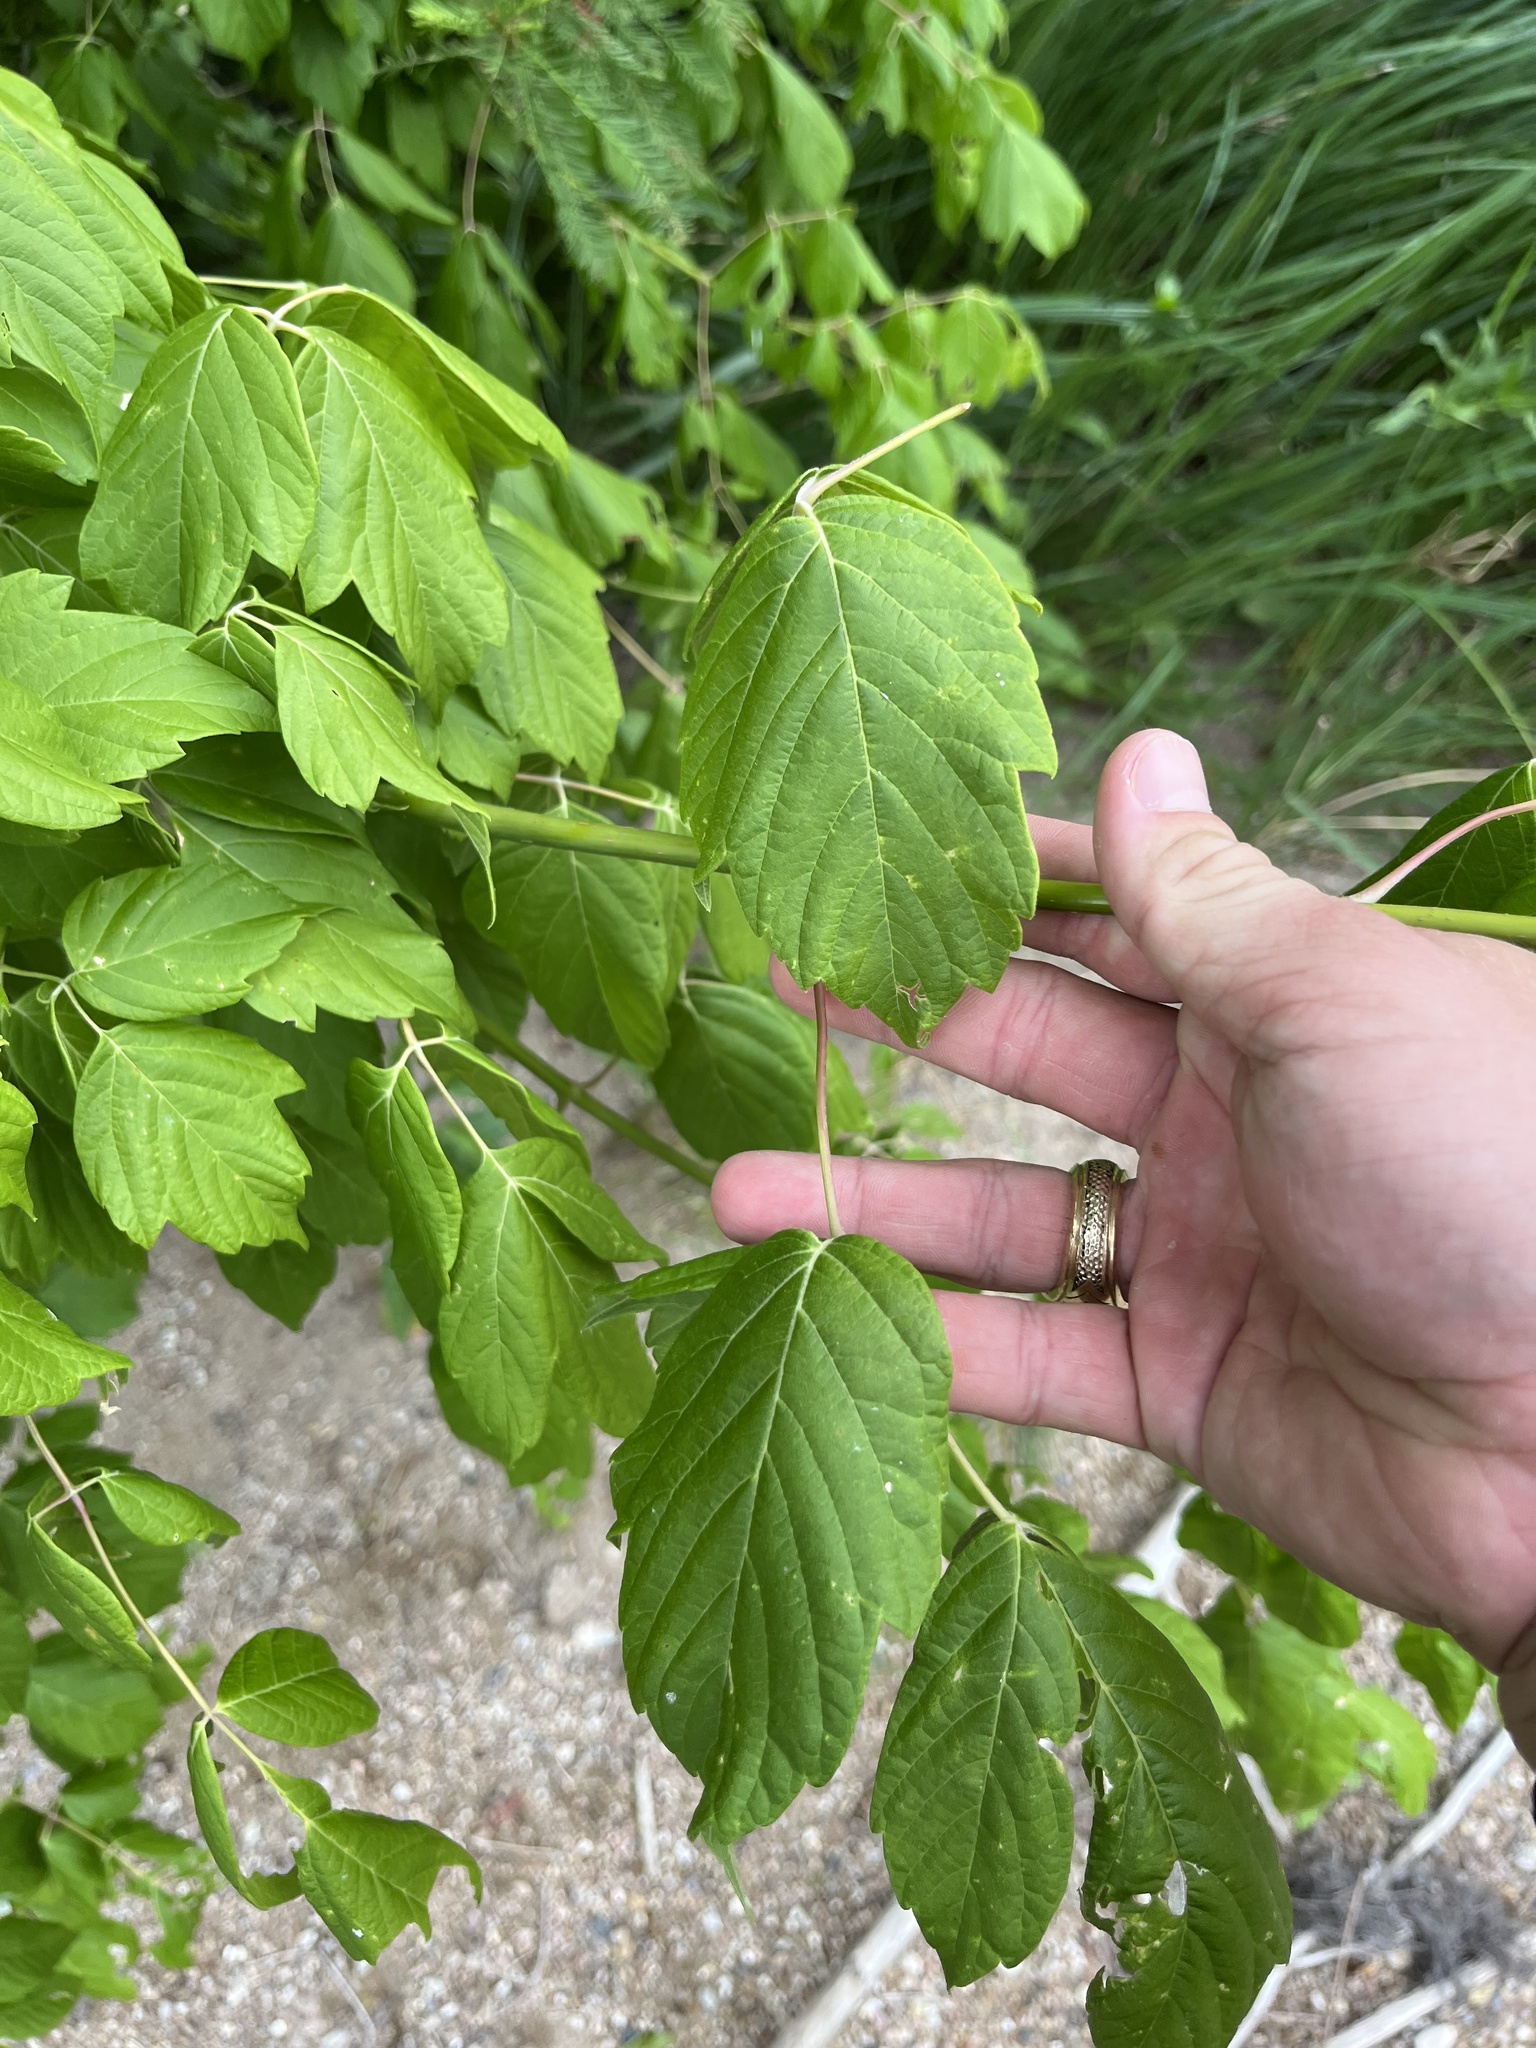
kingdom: Plantae
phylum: Tracheophyta
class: Magnoliopsida
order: Sapindales
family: Sapindaceae
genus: Acer
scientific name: Acer negundo
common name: Ashleaf maple
